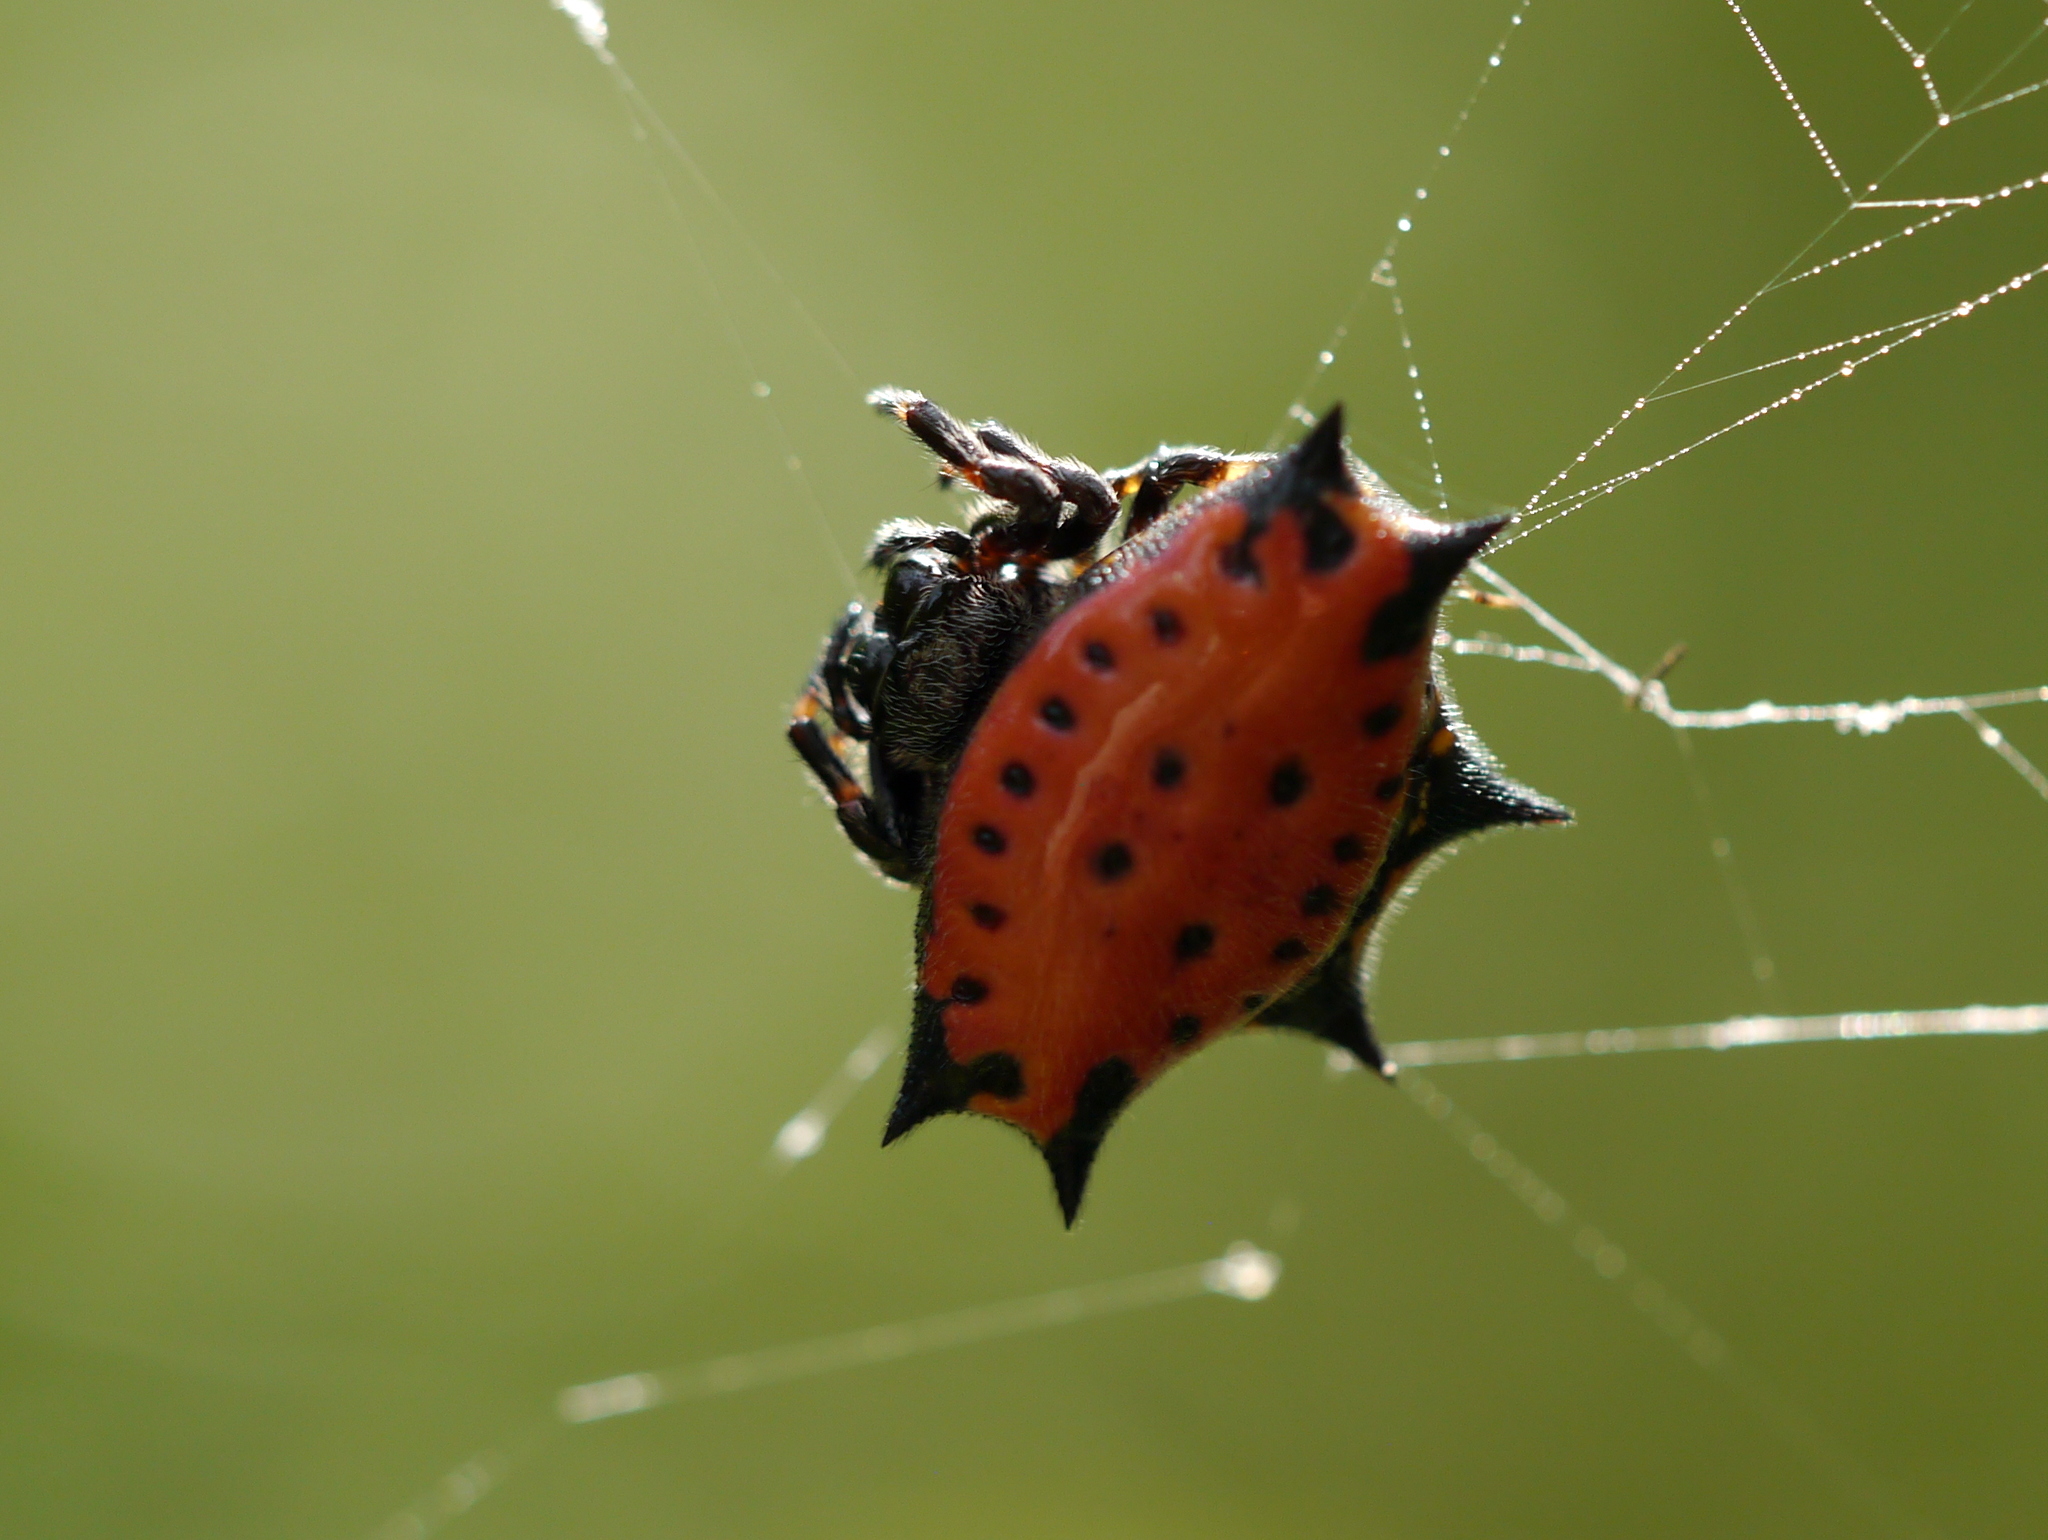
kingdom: Animalia
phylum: Arthropoda
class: Arachnida
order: Araneae
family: Araneidae
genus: Gasteracantha
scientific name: Gasteracantha cancriformis
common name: Orb weavers
